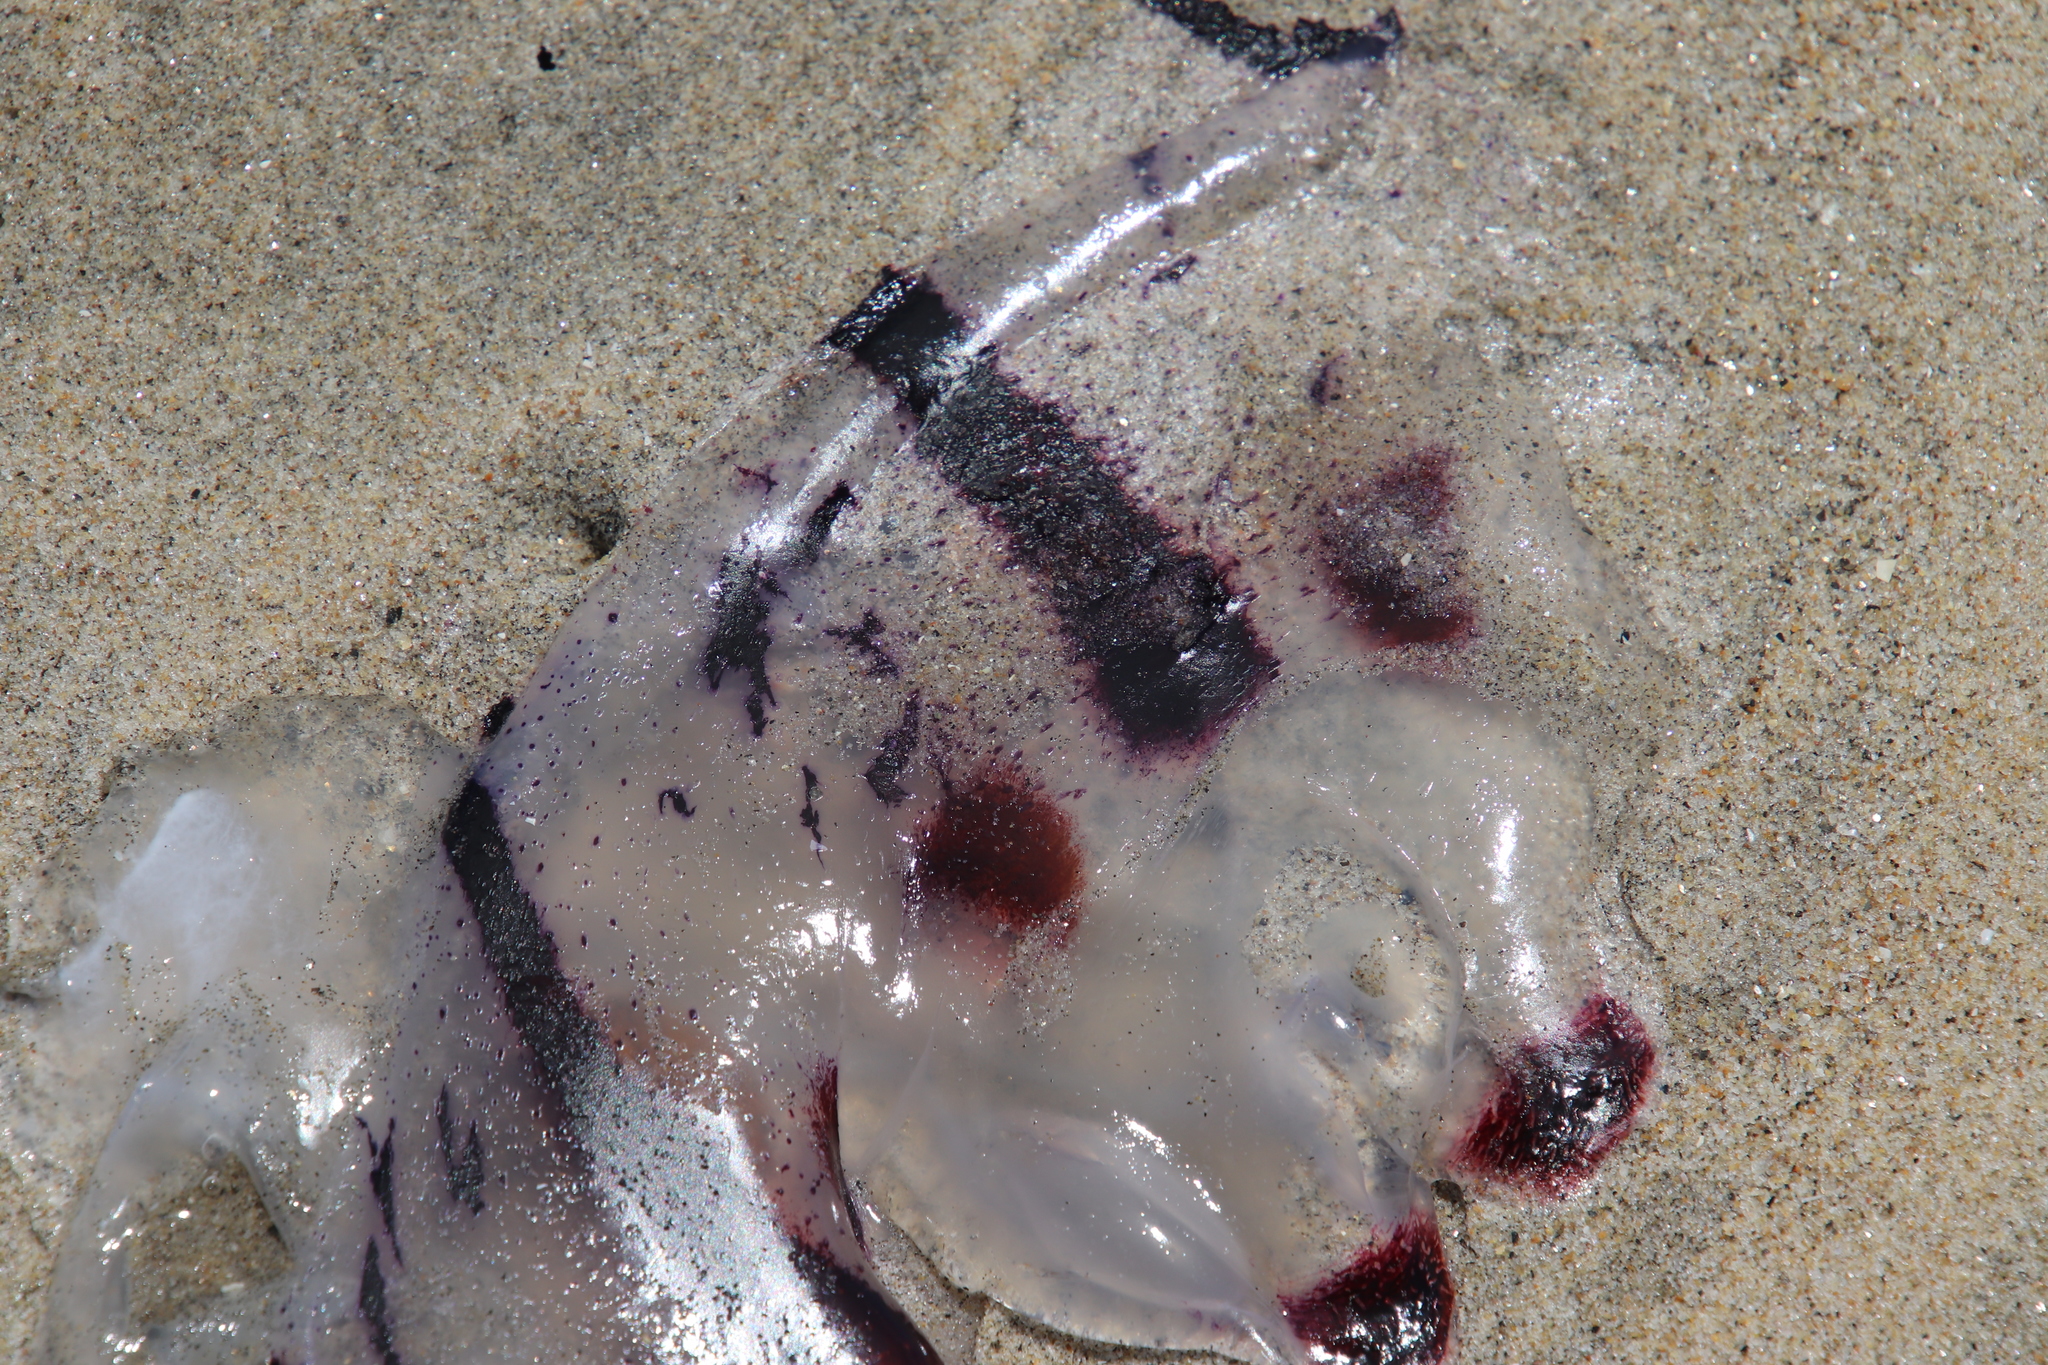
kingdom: Animalia
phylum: Cnidaria
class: Scyphozoa
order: Semaeostomeae
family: Pelagiidae
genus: Chrysaora
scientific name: Chrysaora colorata
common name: Purple-striped jellyfish
